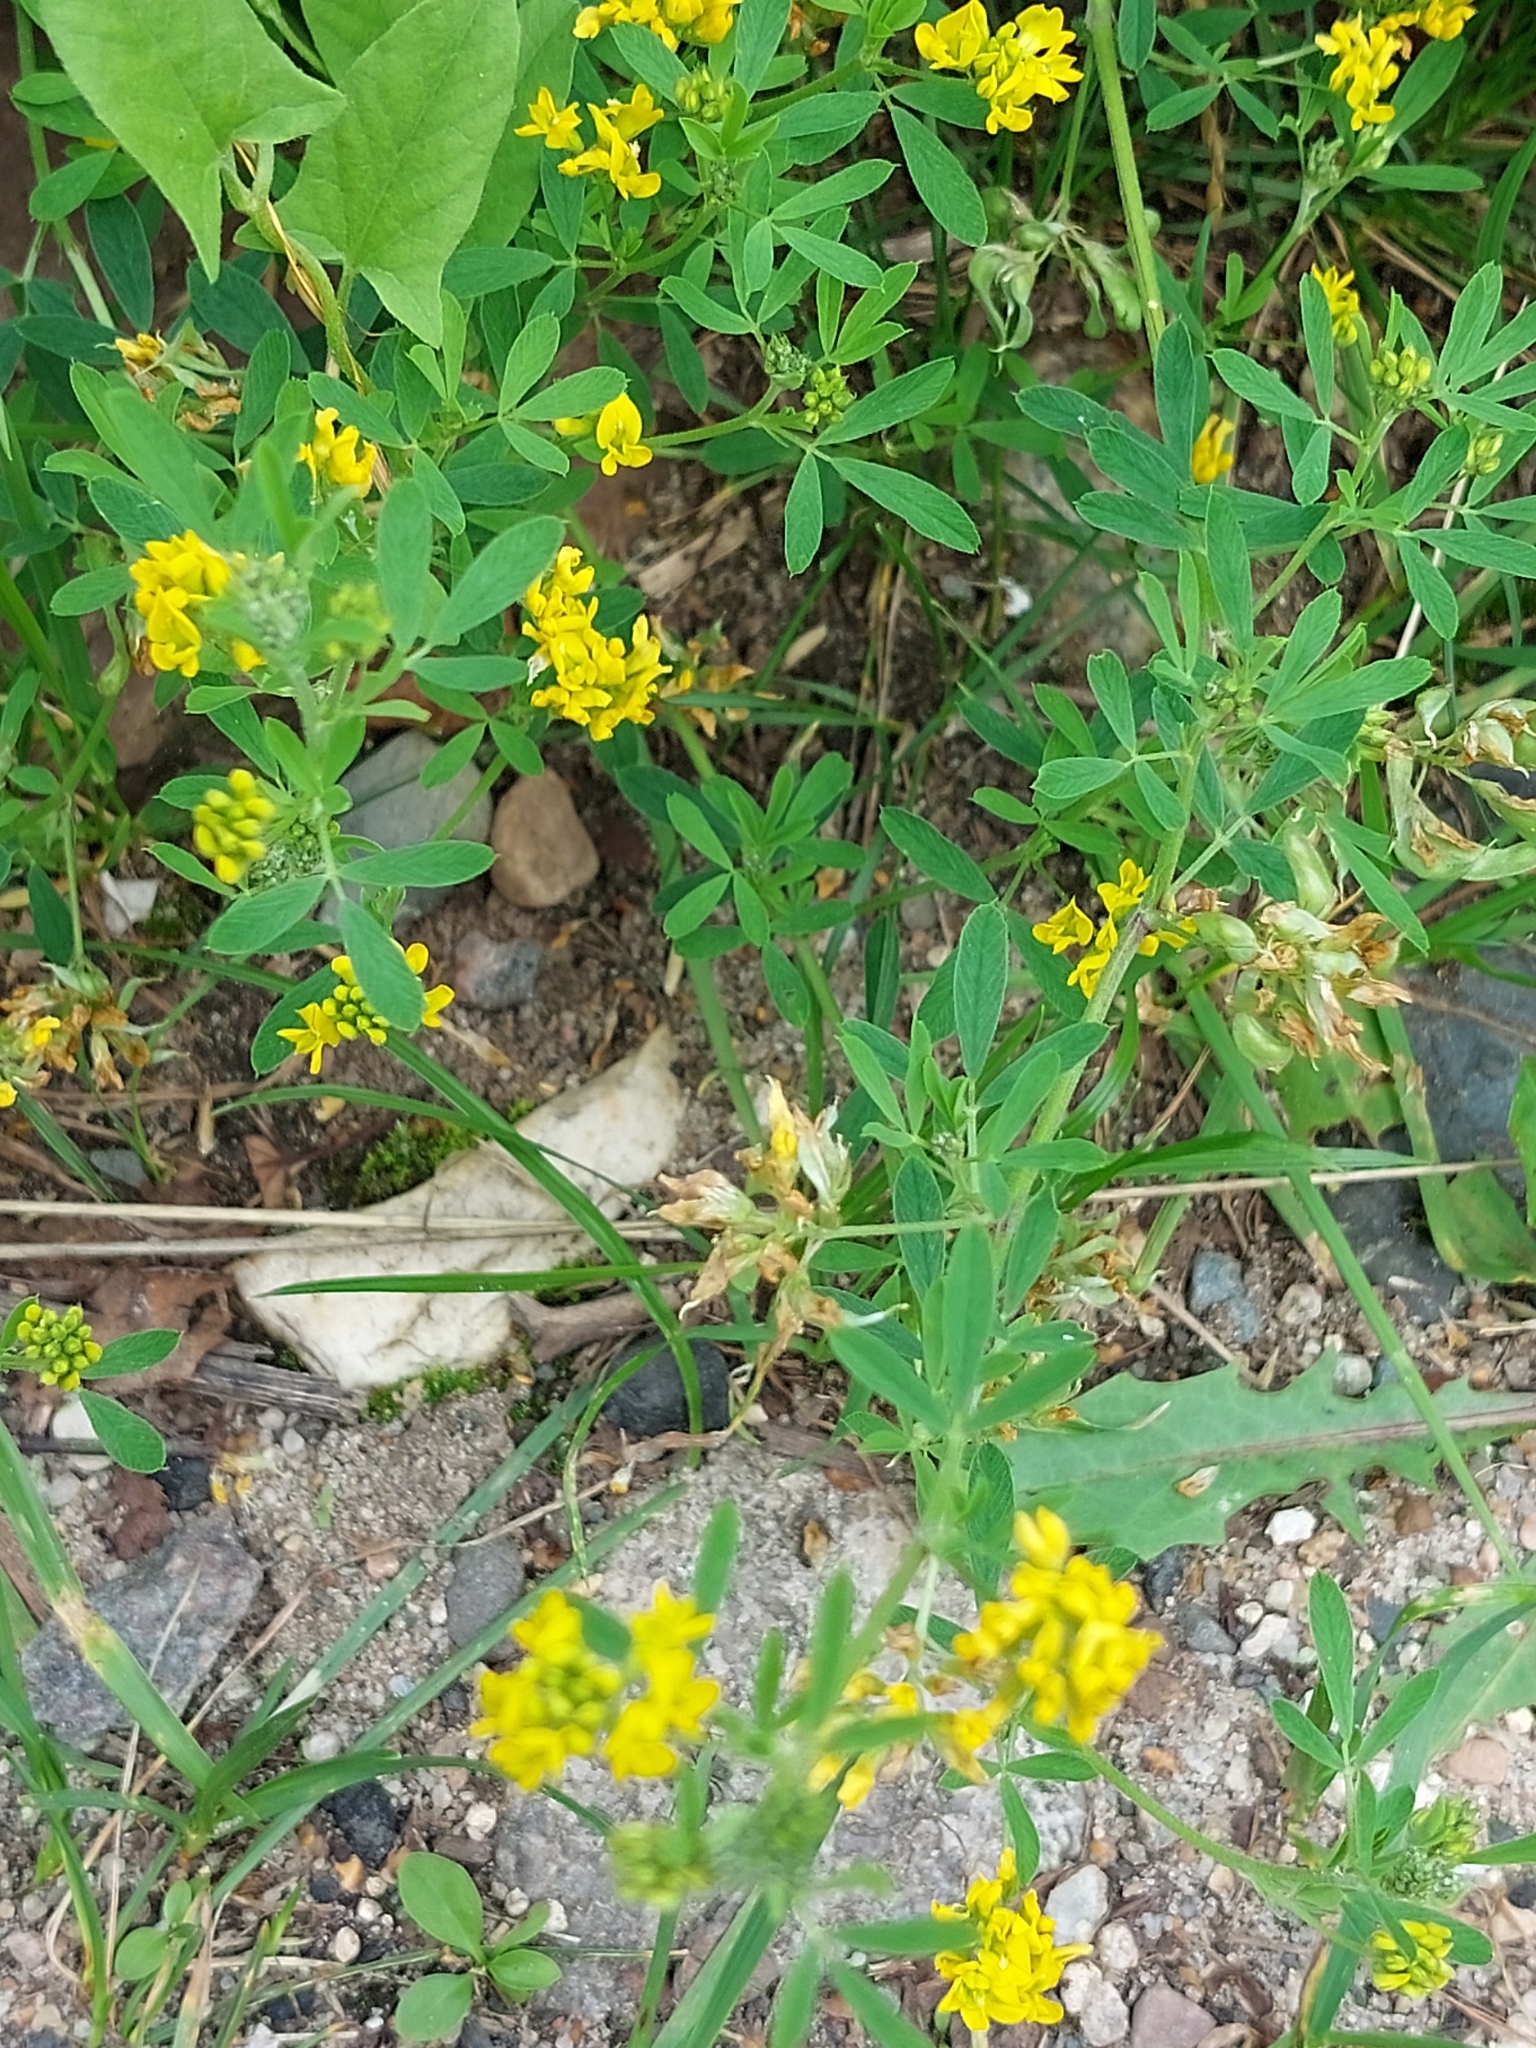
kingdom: Plantae
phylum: Tracheophyta
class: Magnoliopsida
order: Fabales
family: Fabaceae
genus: Medicago
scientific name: Medicago falcata
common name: Sickle medick
